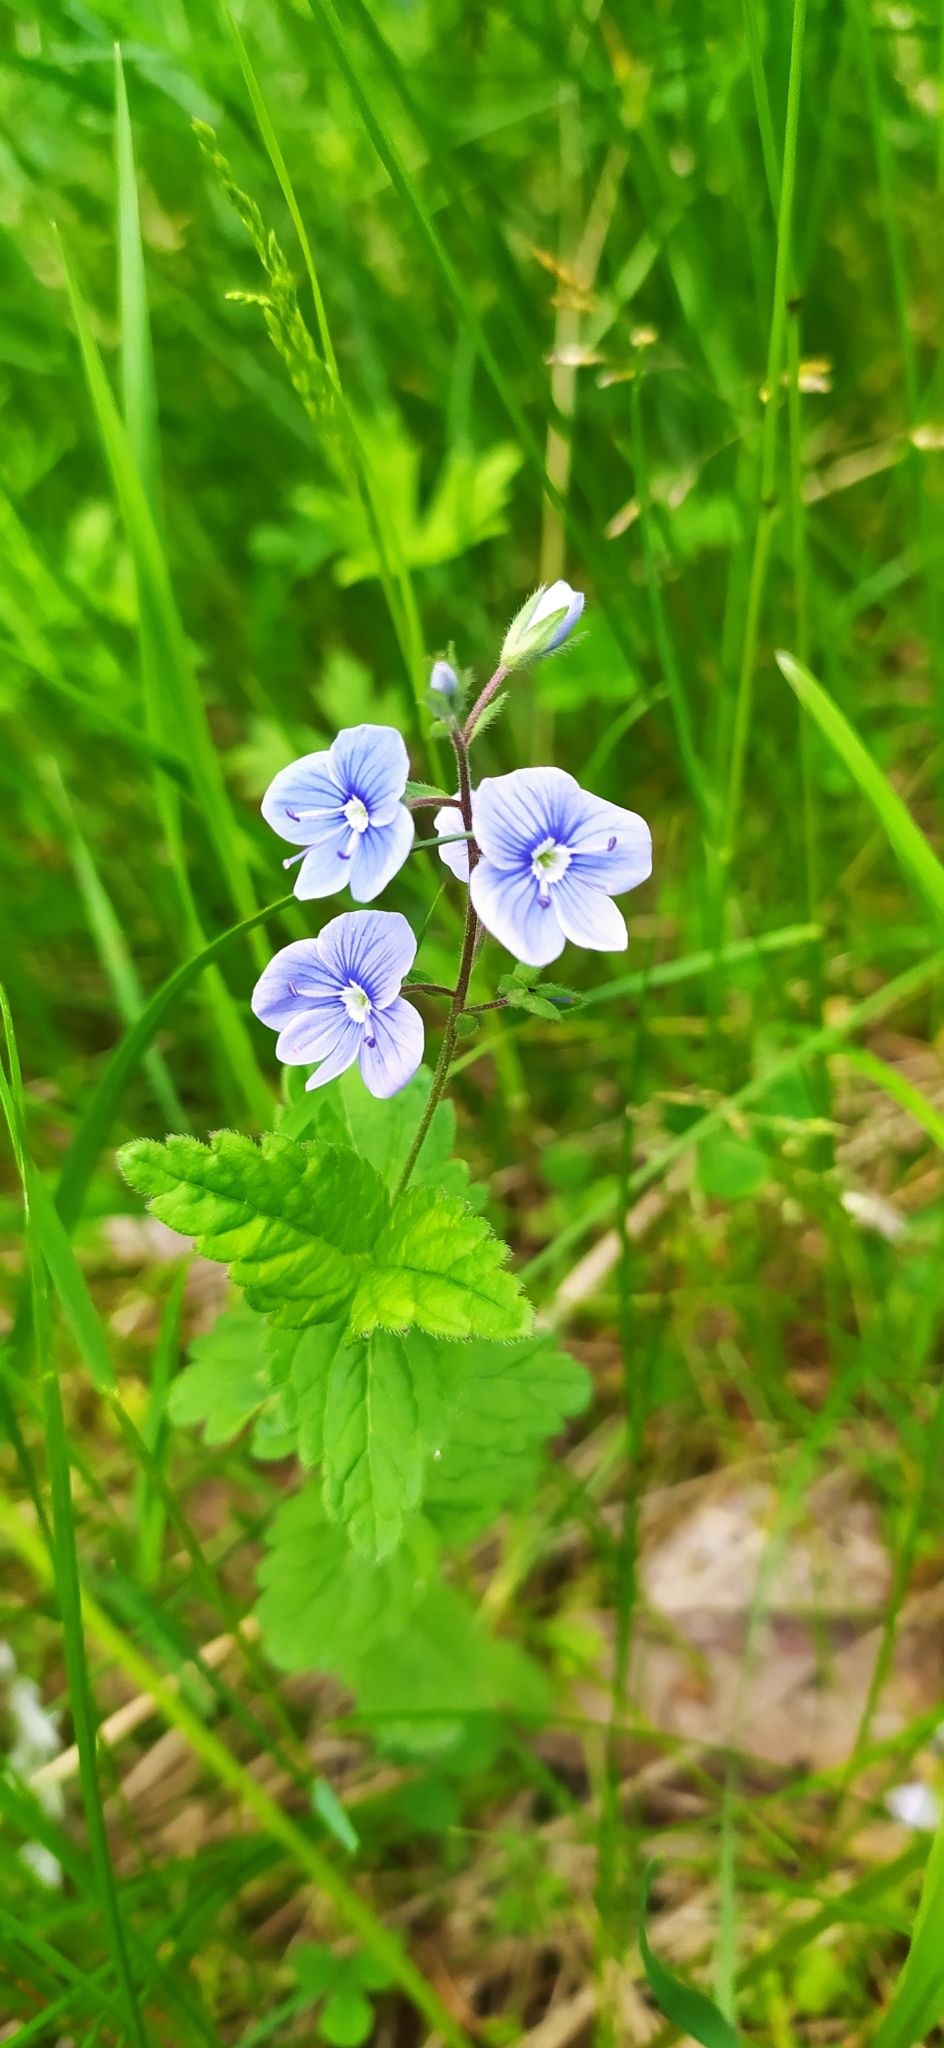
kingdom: Plantae
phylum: Tracheophyta
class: Magnoliopsida
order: Lamiales
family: Plantaginaceae
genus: Veronica
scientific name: Veronica chamaedrys
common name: Germander speedwell
